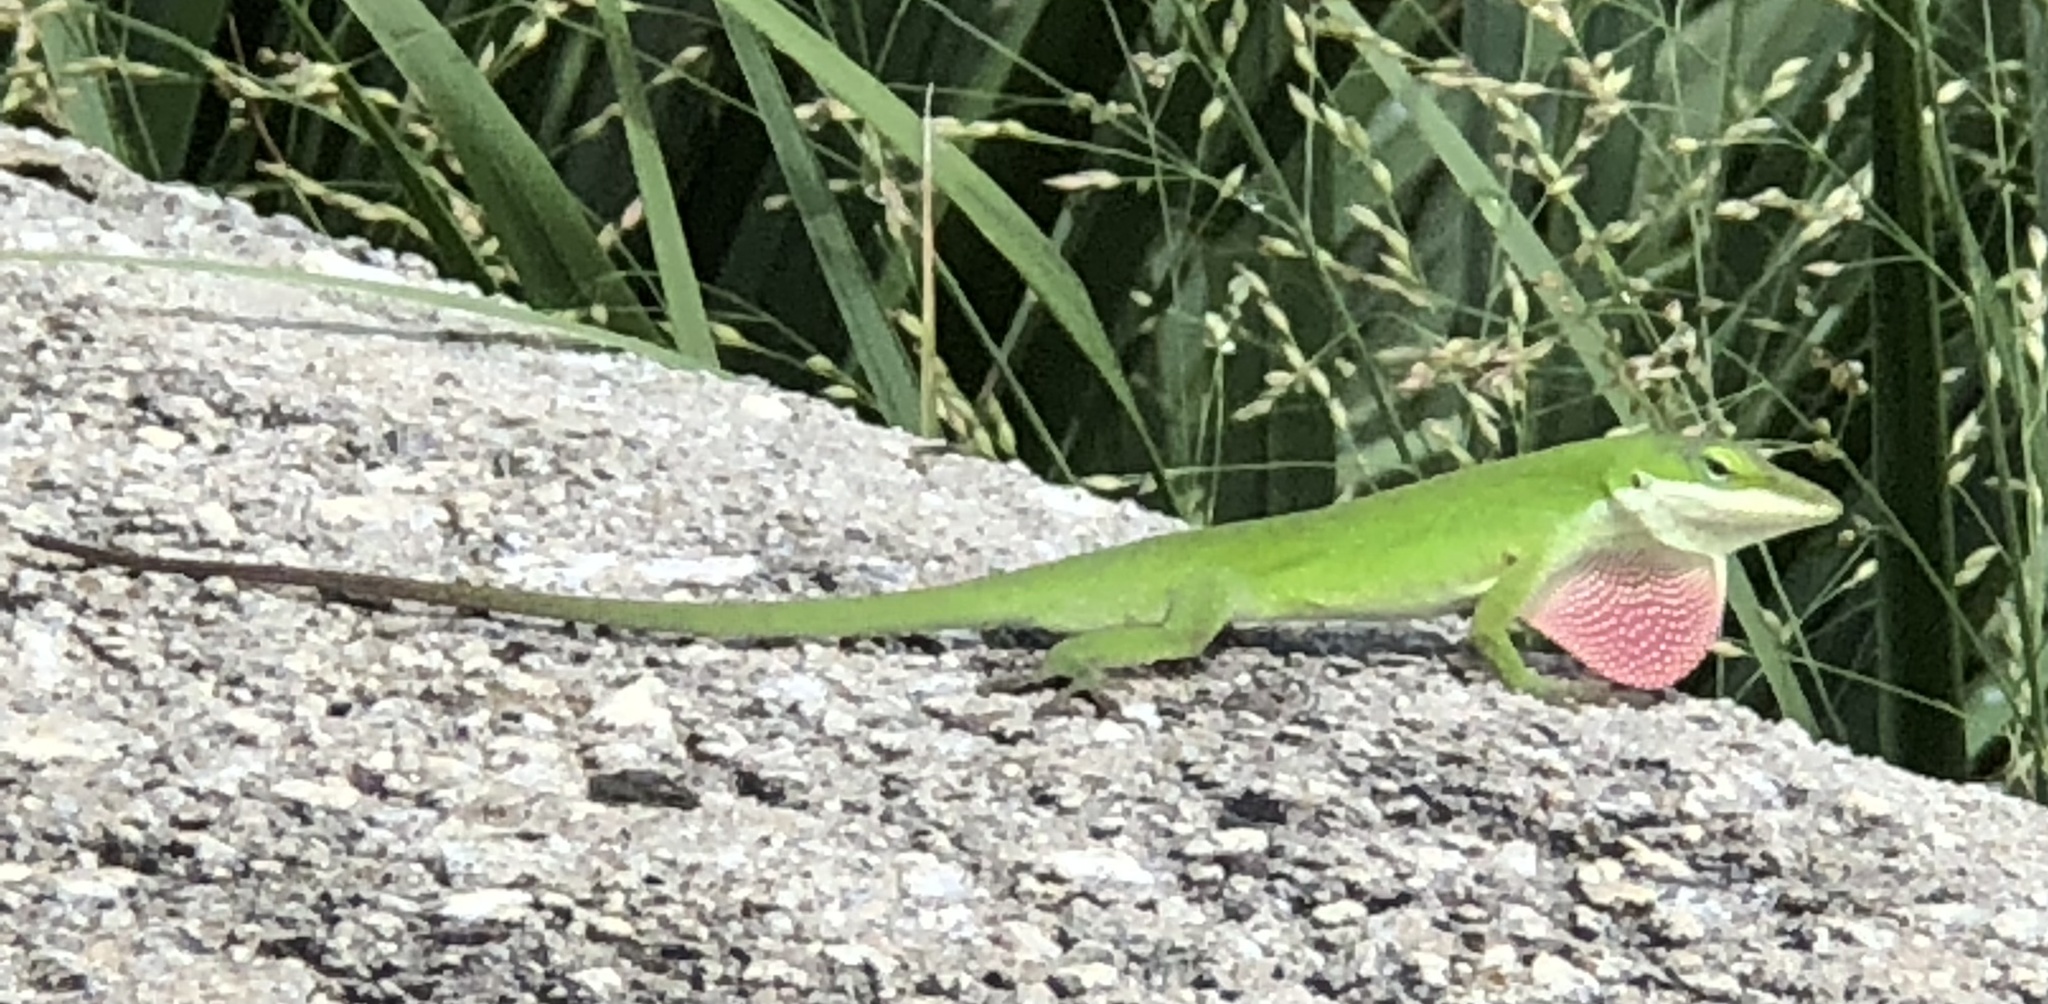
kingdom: Animalia
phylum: Chordata
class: Squamata
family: Dactyloidae
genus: Anolis
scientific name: Anolis carolinensis
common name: Green anole
